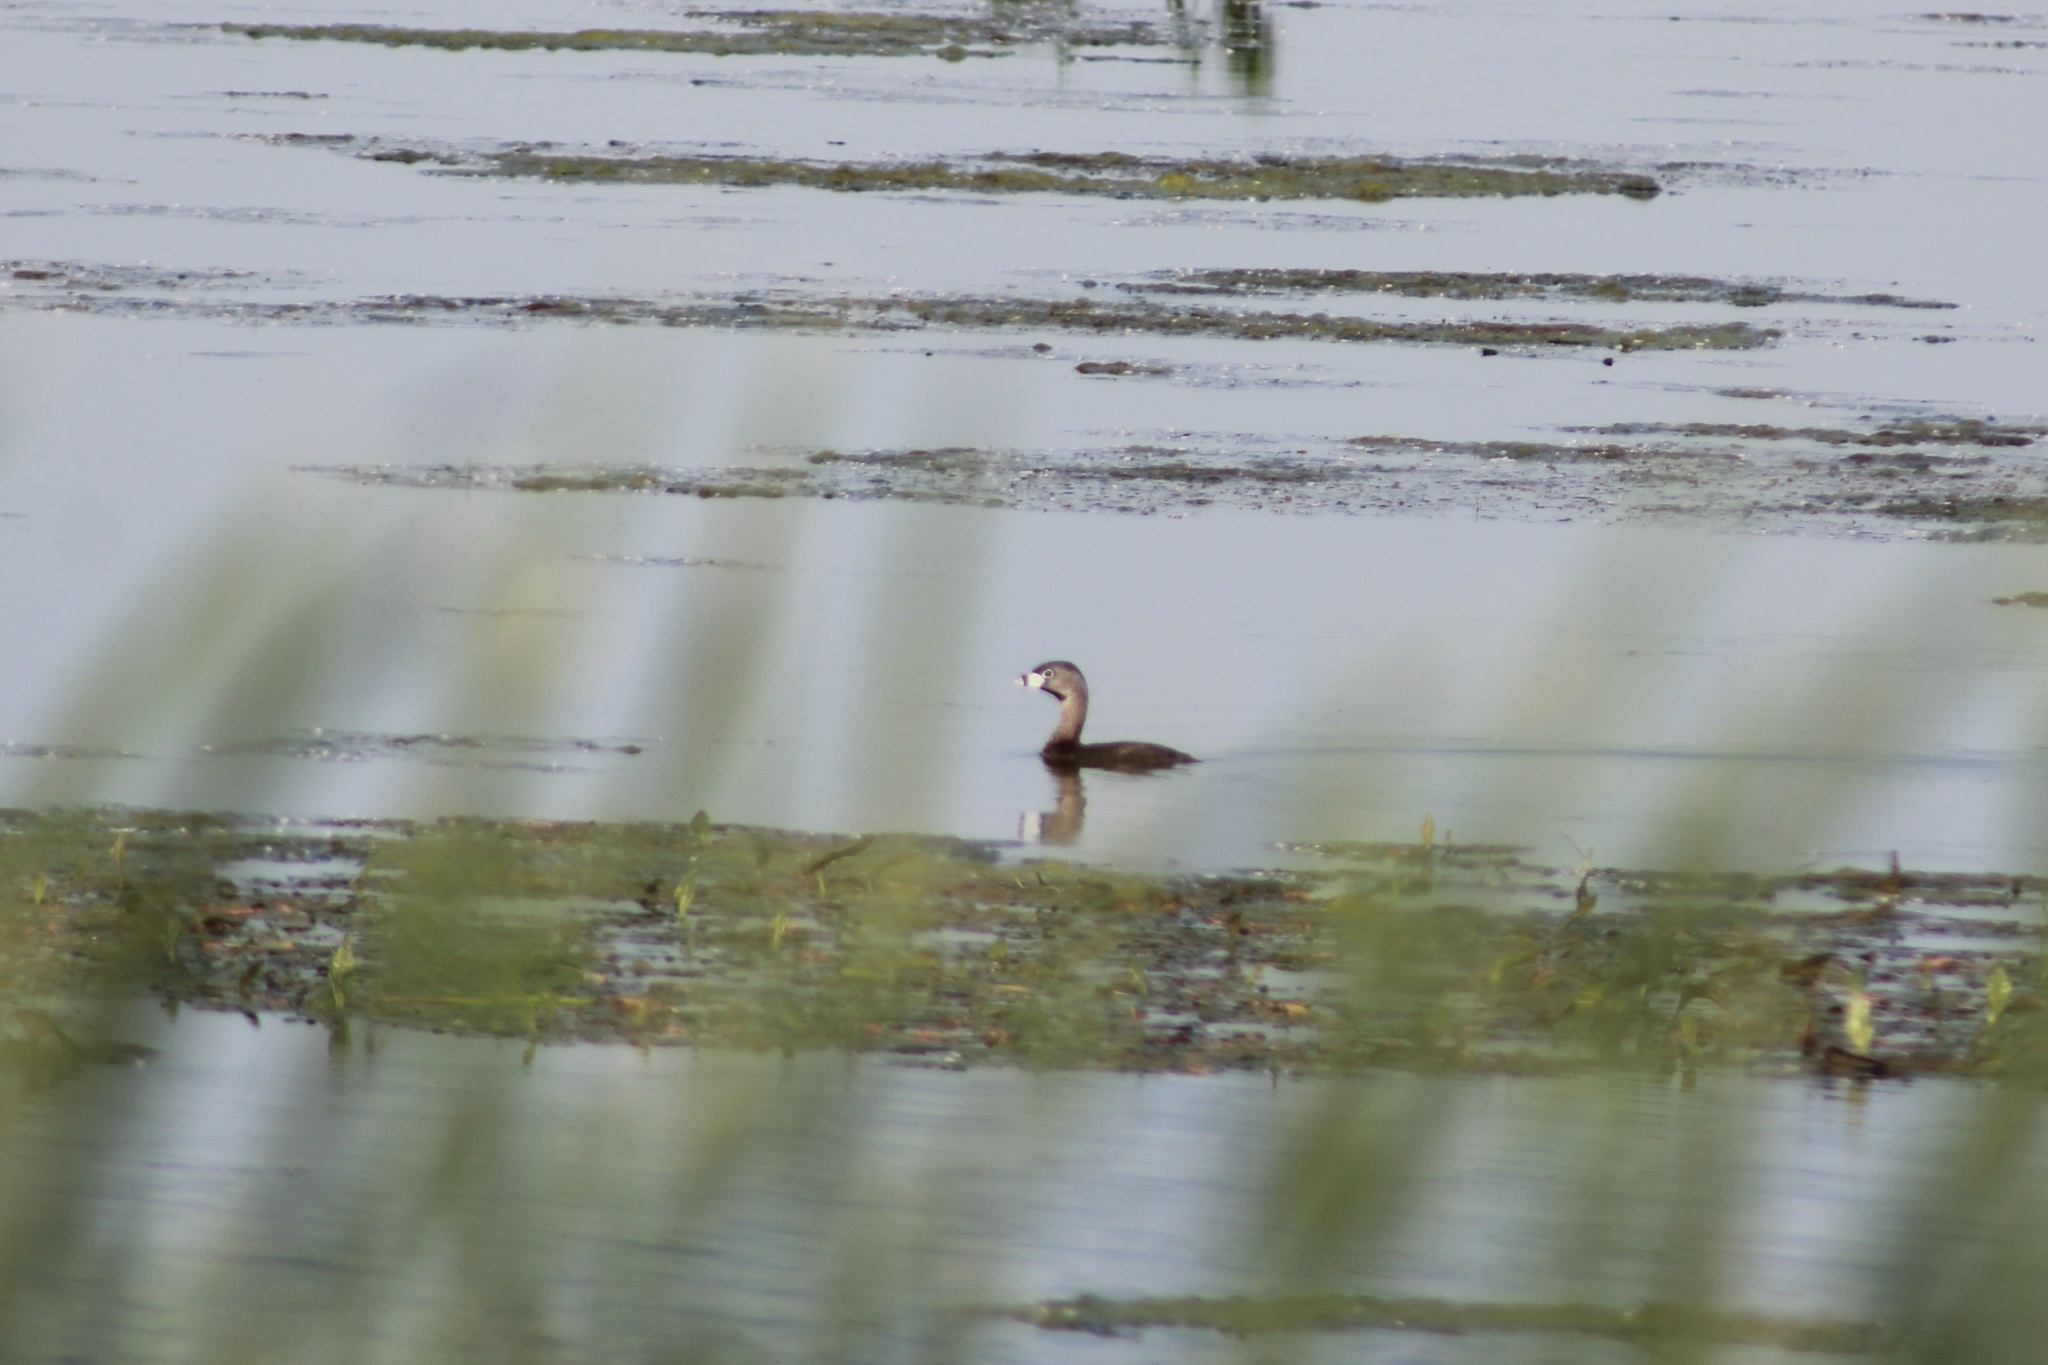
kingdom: Animalia
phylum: Chordata
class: Aves
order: Podicipediformes
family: Podicipedidae
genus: Podilymbus
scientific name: Podilymbus podiceps
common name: Pied-billed grebe
